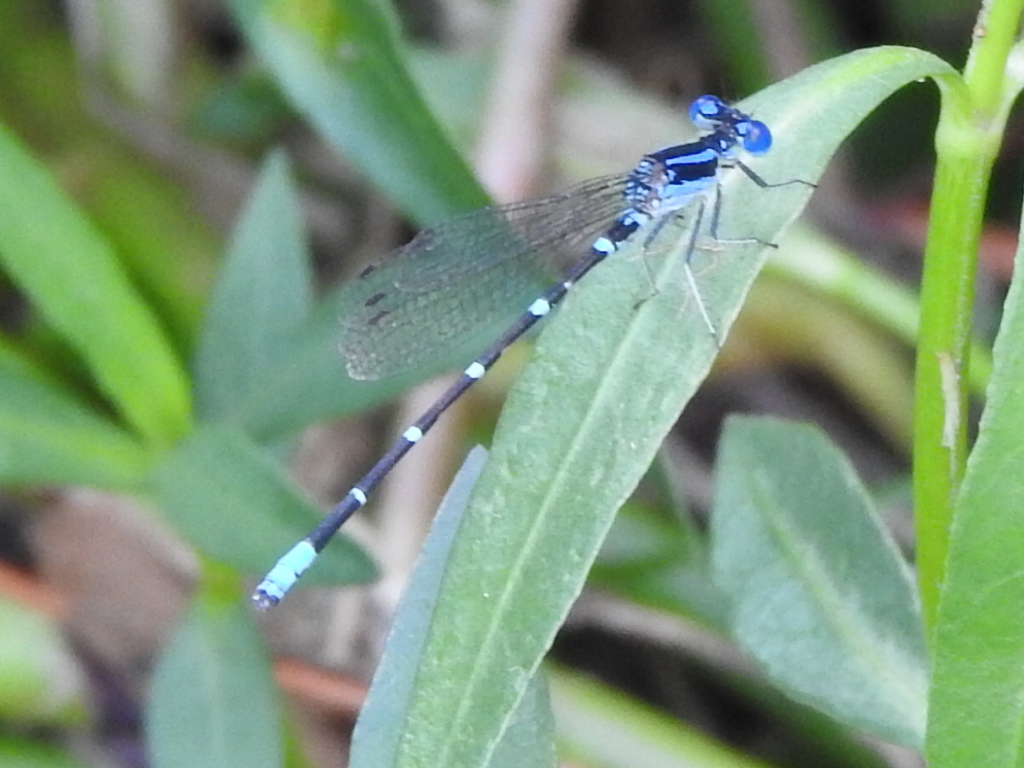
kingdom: Animalia
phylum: Arthropoda
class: Insecta
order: Odonata
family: Coenagrionidae
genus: Argia
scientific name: Argia sedula
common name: Blue-ringed dancer
